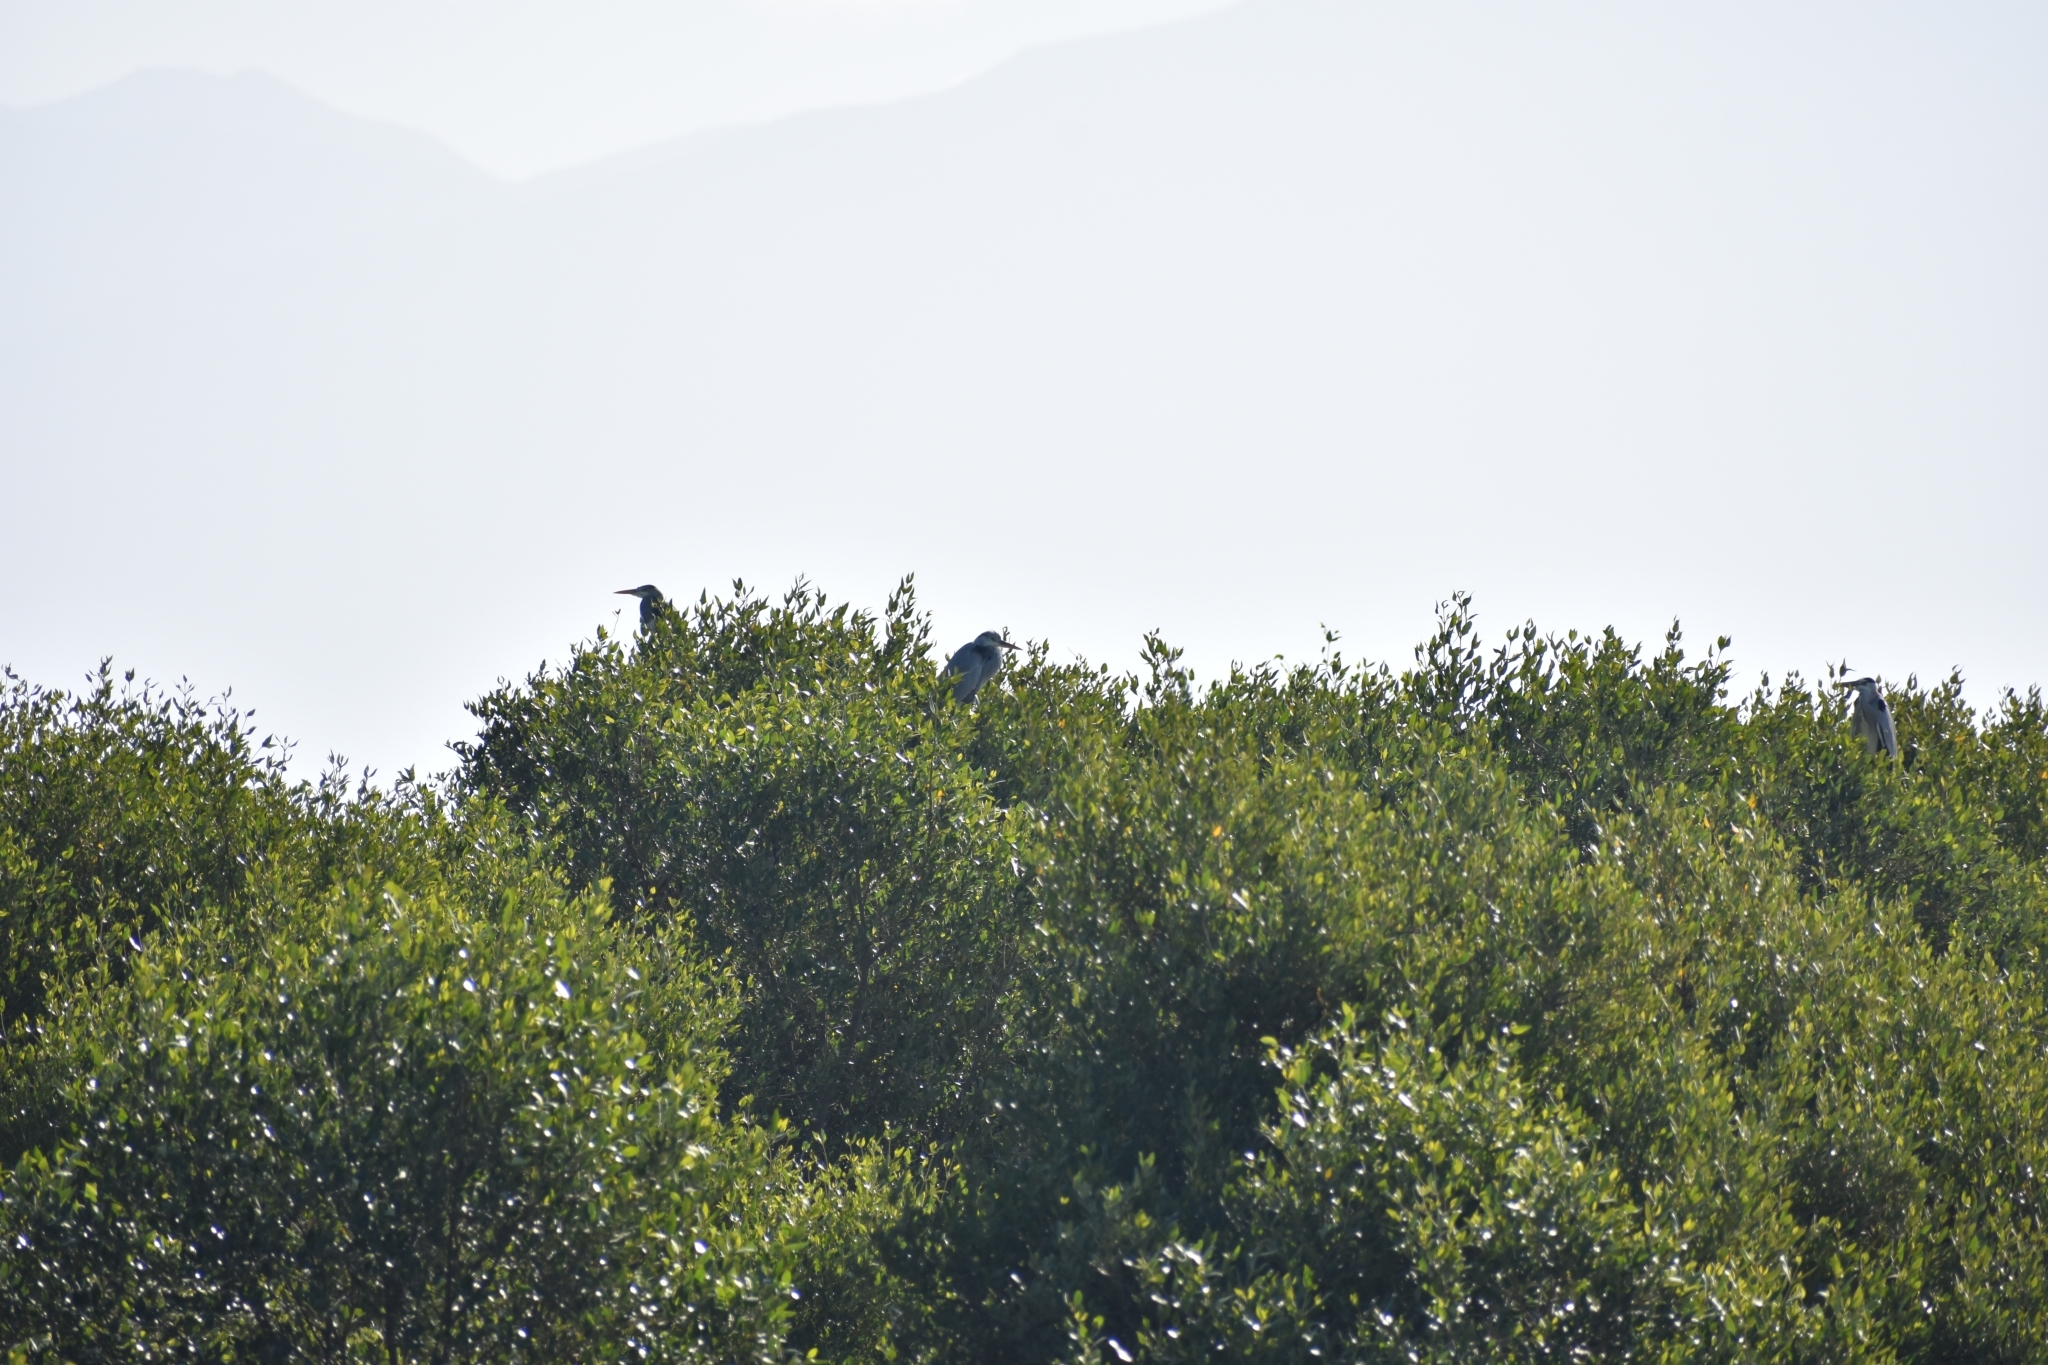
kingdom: Animalia
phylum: Chordata
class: Aves
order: Pelecaniformes
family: Ardeidae
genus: Ardea
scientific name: Ardea cinerea
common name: Grey heron
